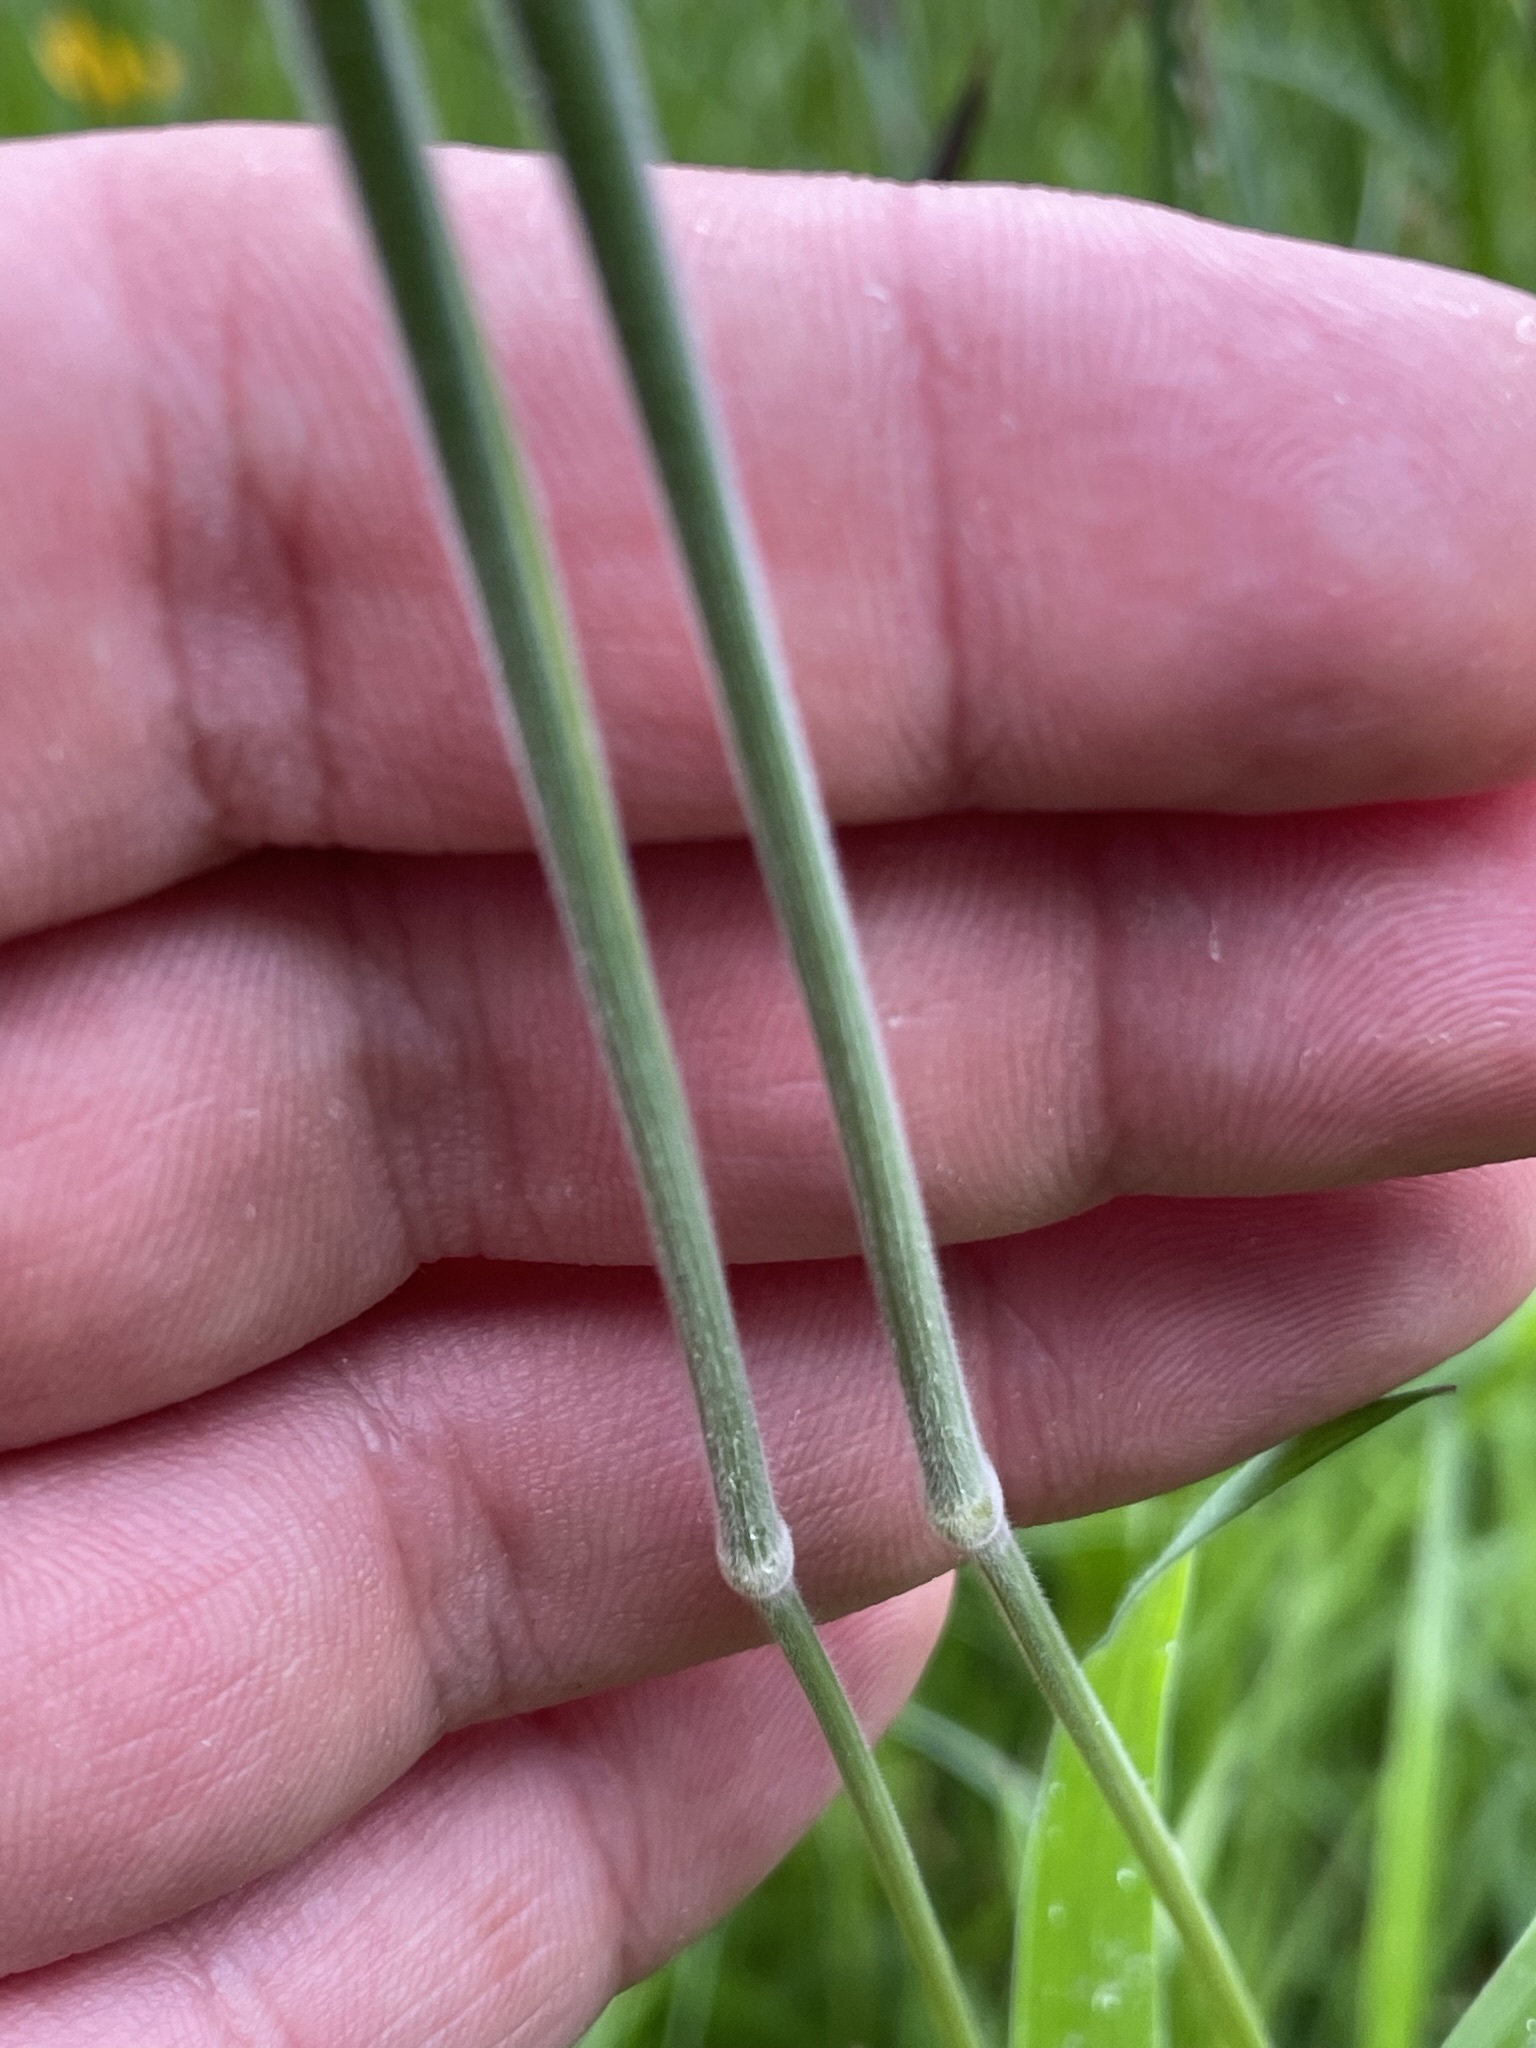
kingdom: Plantae
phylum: Tracheophyta
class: Liliopsida
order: Poales
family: Poaceae
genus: Holcus
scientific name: Holcus lanatus
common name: Yorkshire-fog
